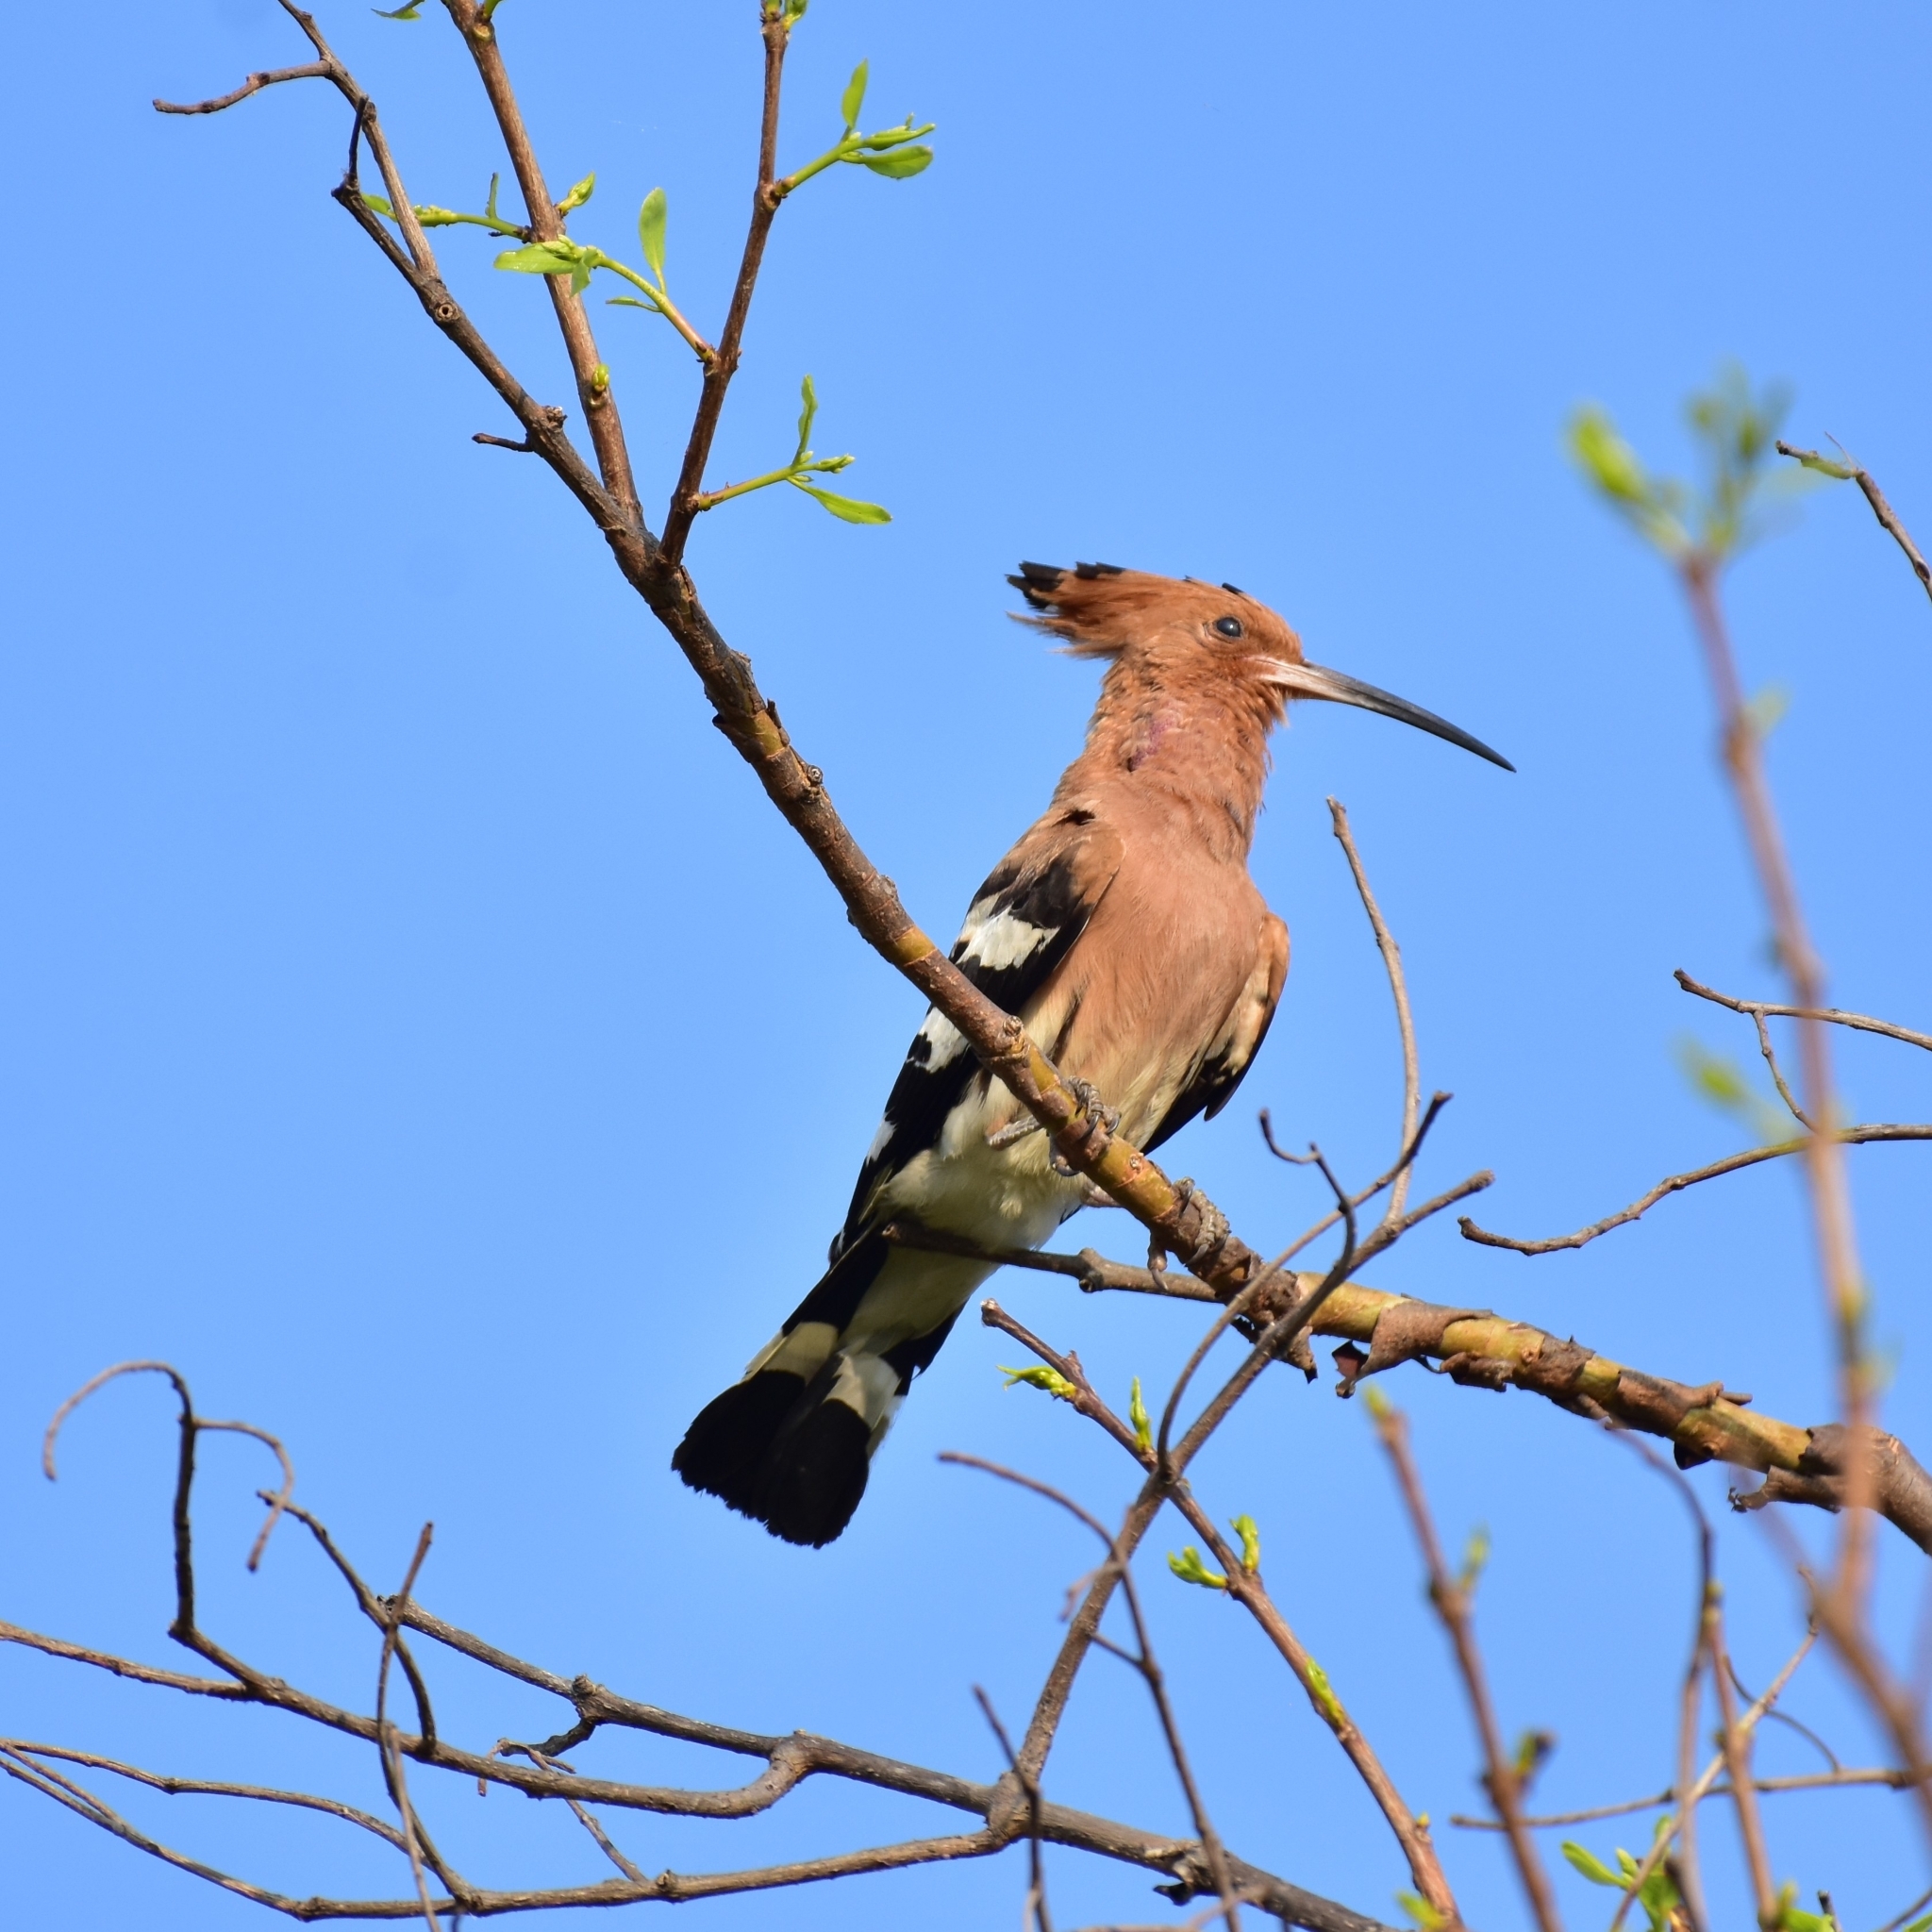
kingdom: Animalia
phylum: Chordata
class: Aves
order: Bucerotiformes
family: Upupidae
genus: Upupa
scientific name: Upupa epops
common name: Eurasian hoopoe
